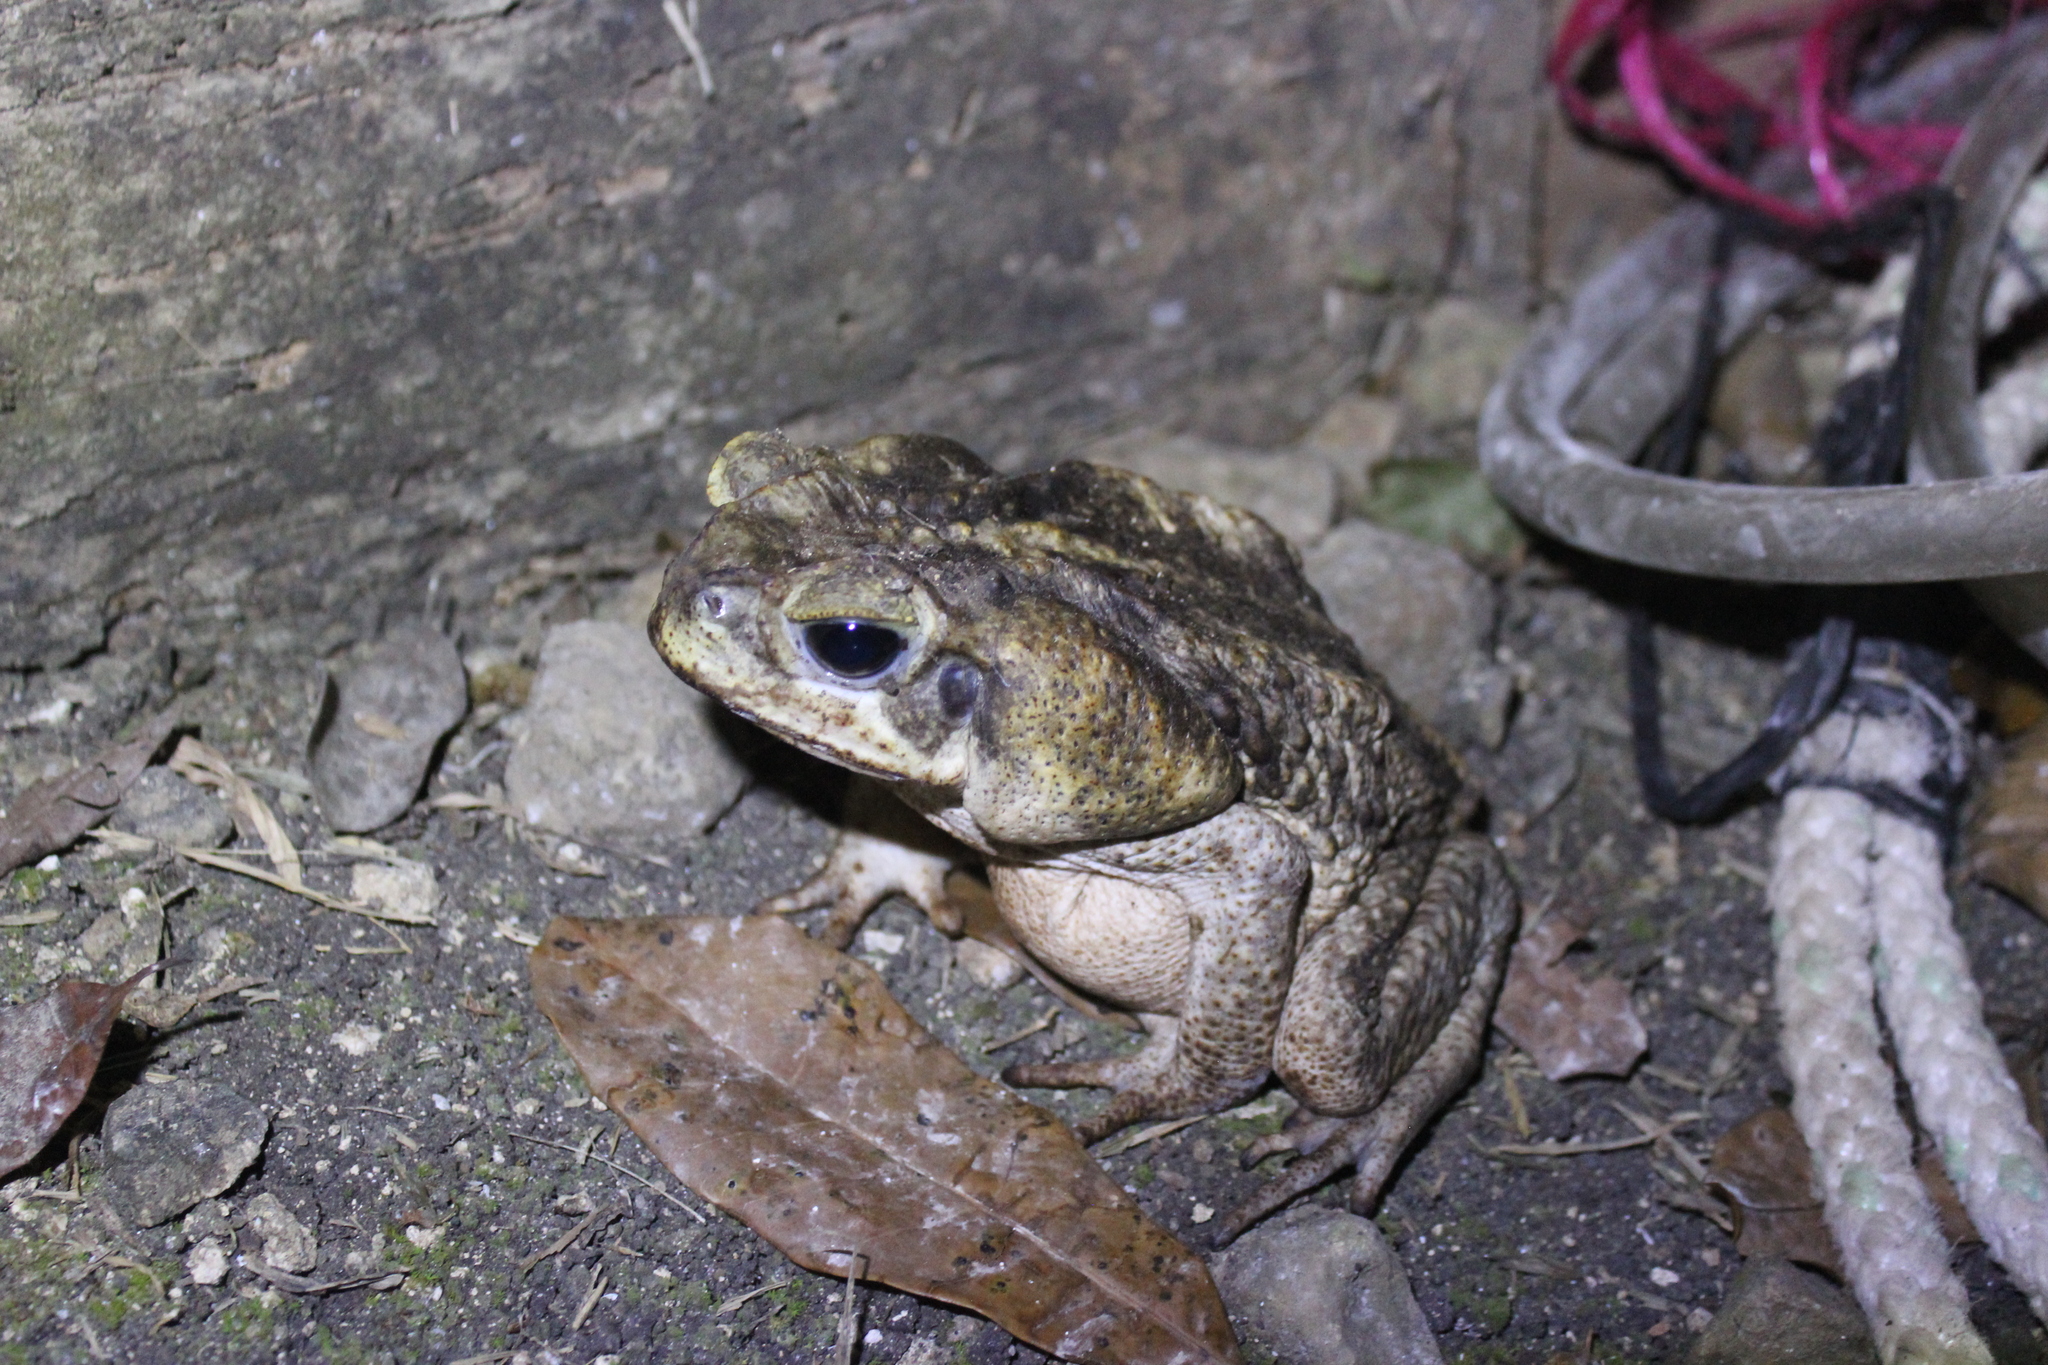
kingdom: Animalia
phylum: Chordata
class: Amphibia
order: Anura
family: Bufonidae
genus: Rhinella
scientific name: Rhinella horribilis
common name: Mesoamerican cane toad
